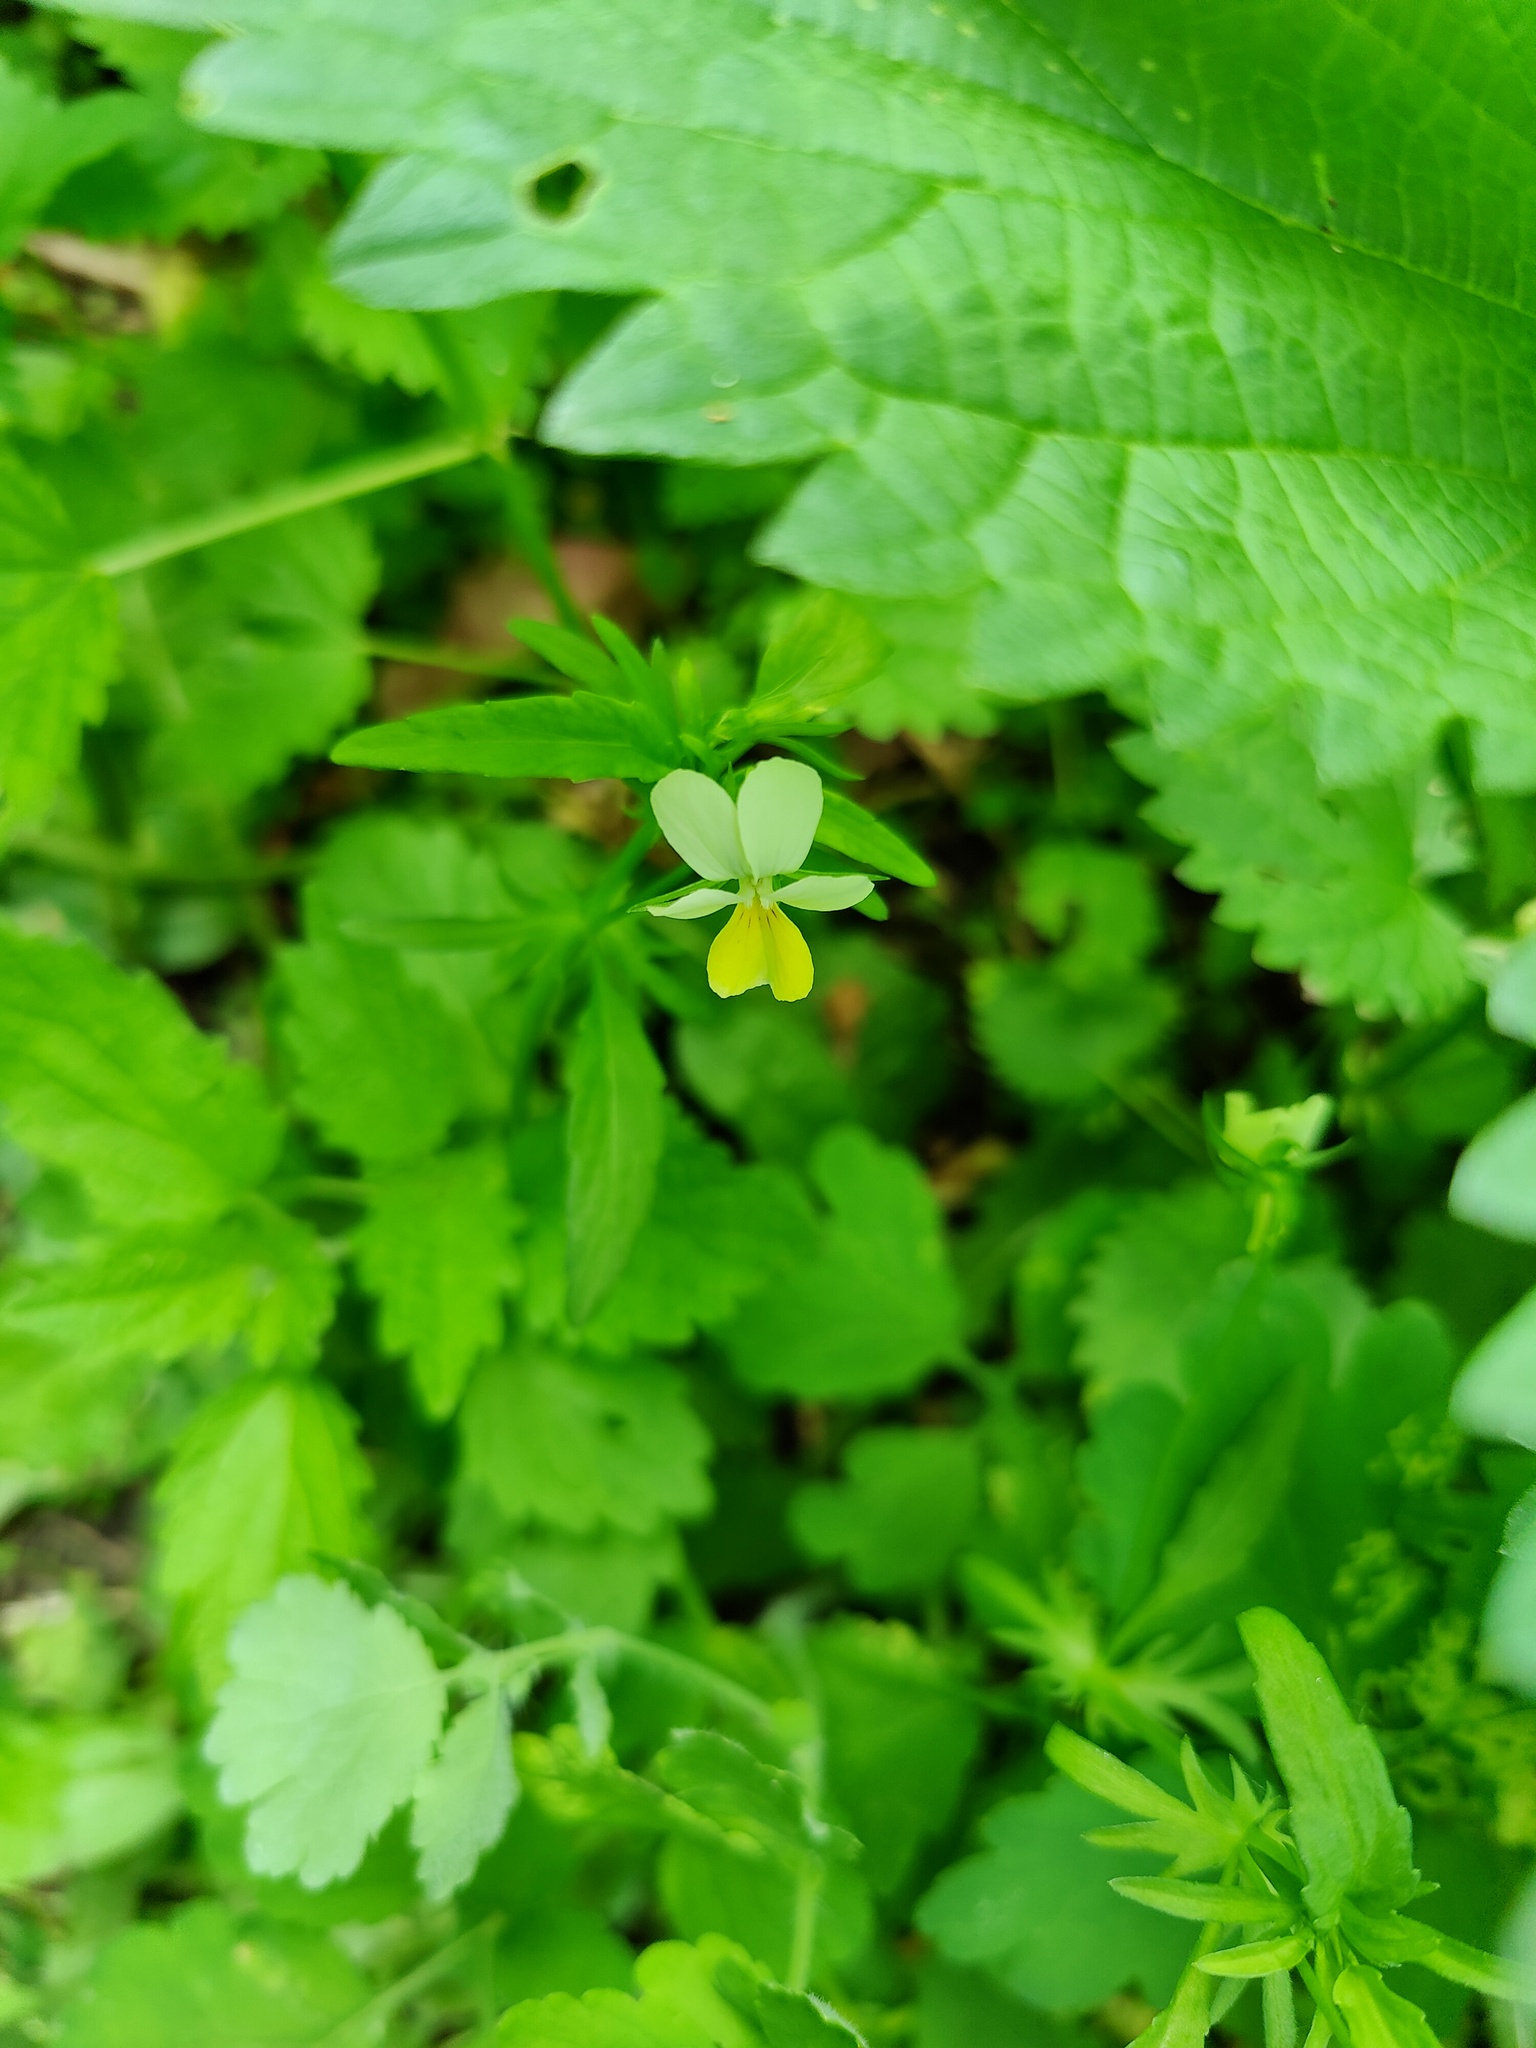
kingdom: Plantae
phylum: Tracheophyta
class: Magnoliopsida
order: Malpighiales
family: Violaceae
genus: Viola
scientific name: Viola arvensis
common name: Field pansy
